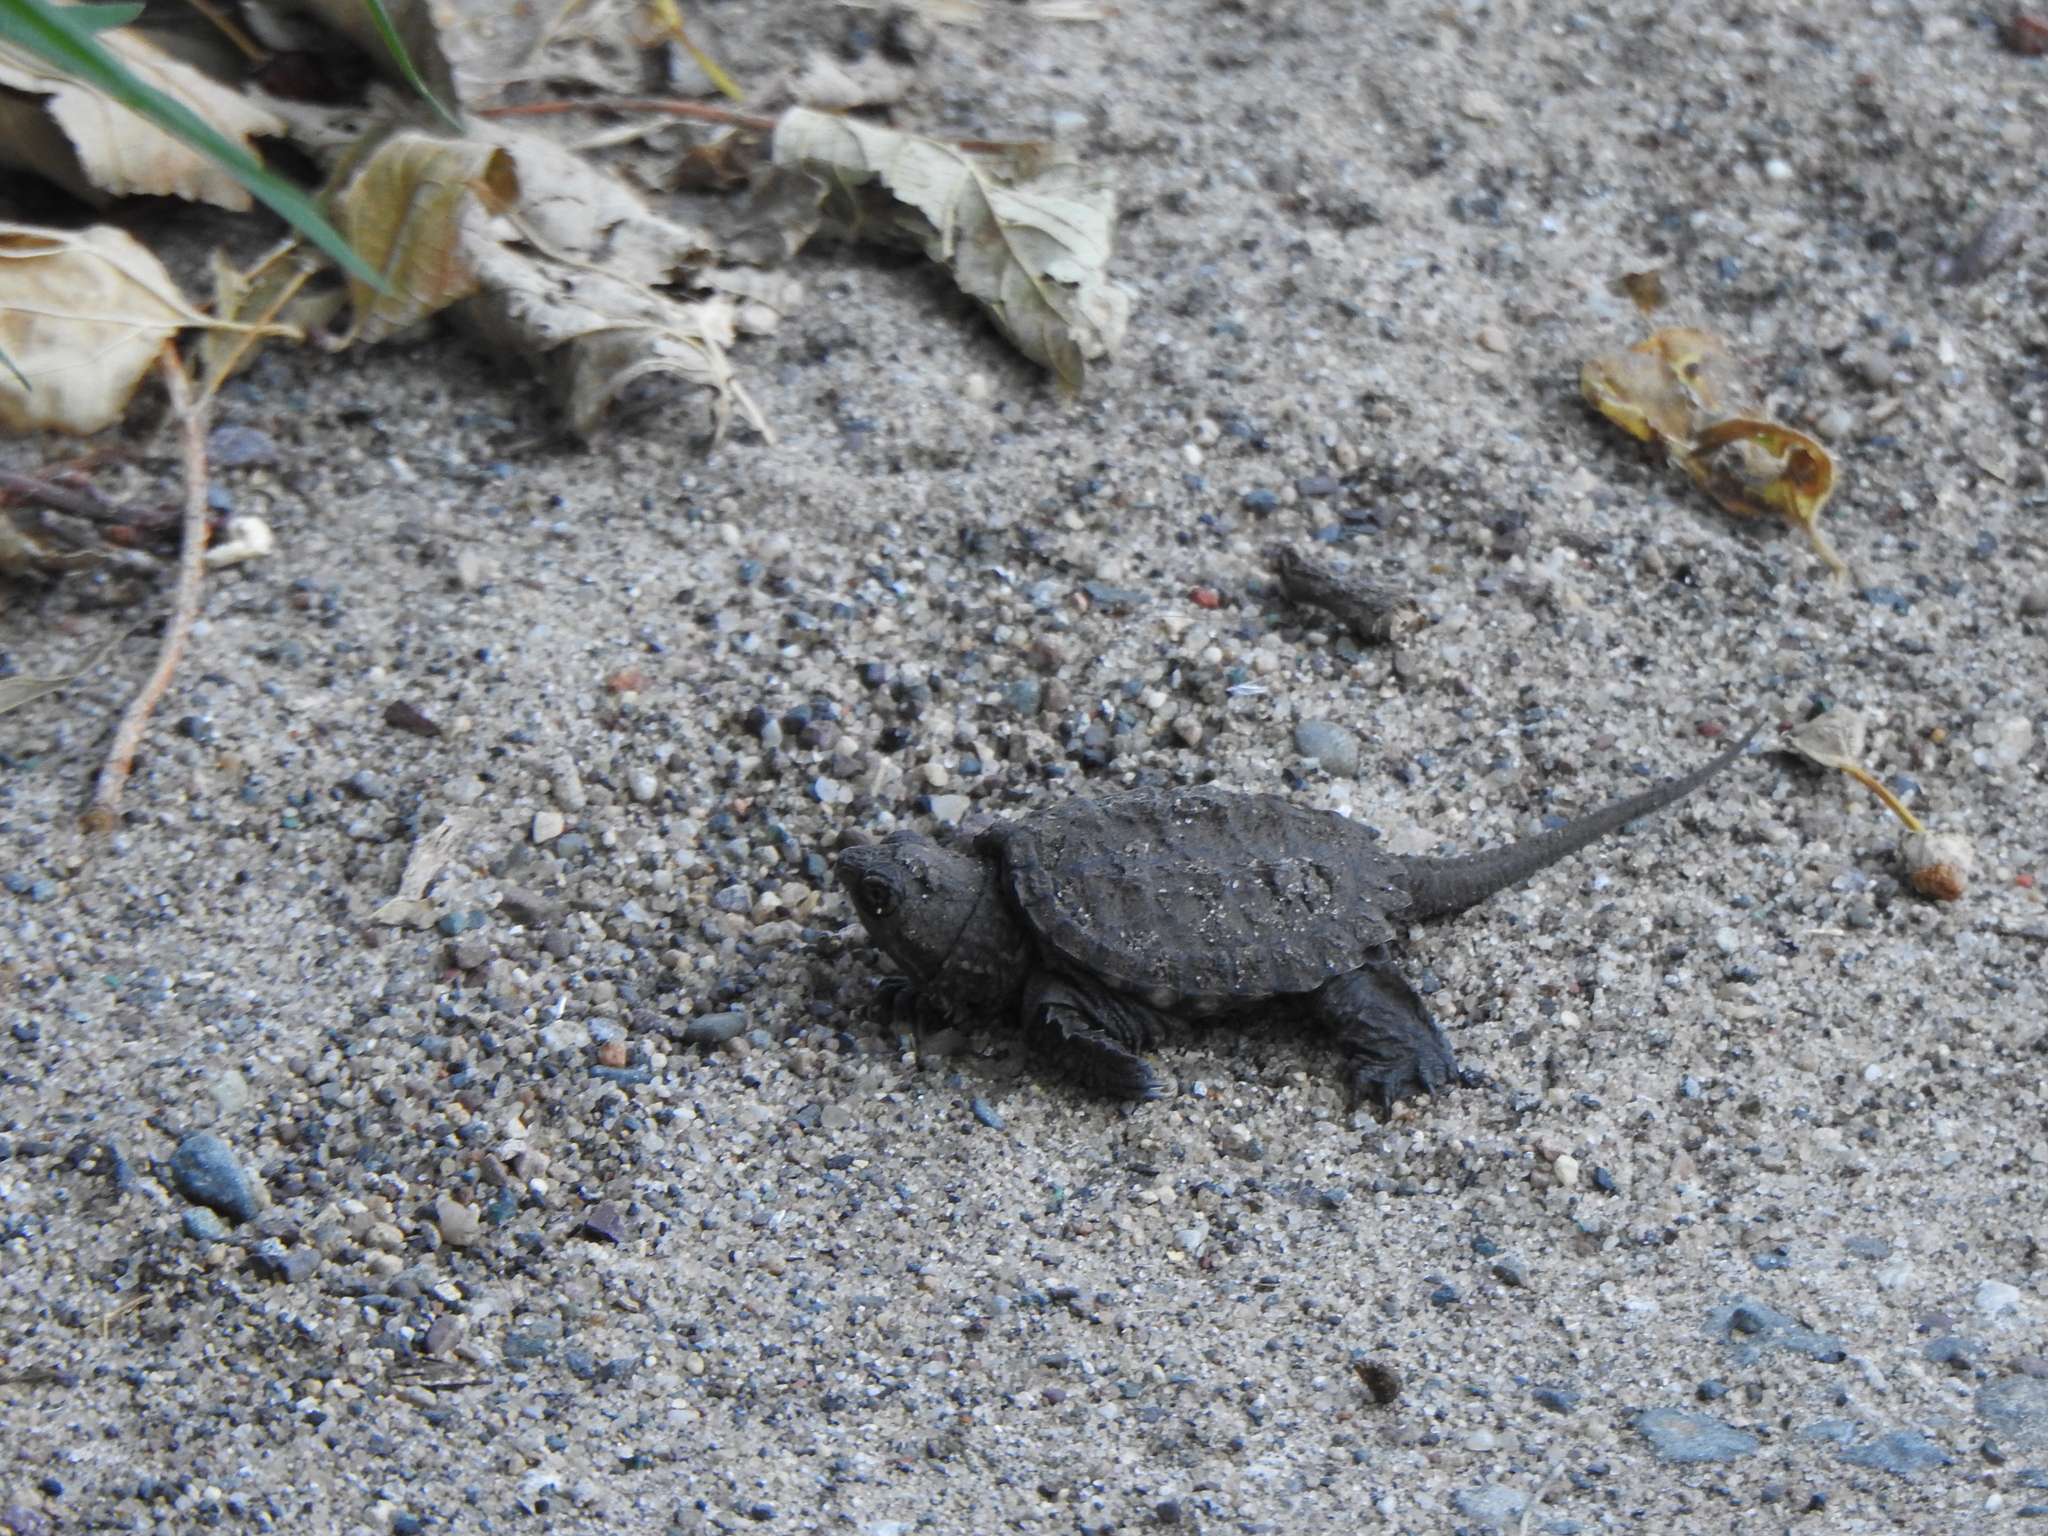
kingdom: Animalia
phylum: Chordata
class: Testudines
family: Chelydridae
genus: Chelydra
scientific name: Chelydra serpentina
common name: Common snapping turtle
